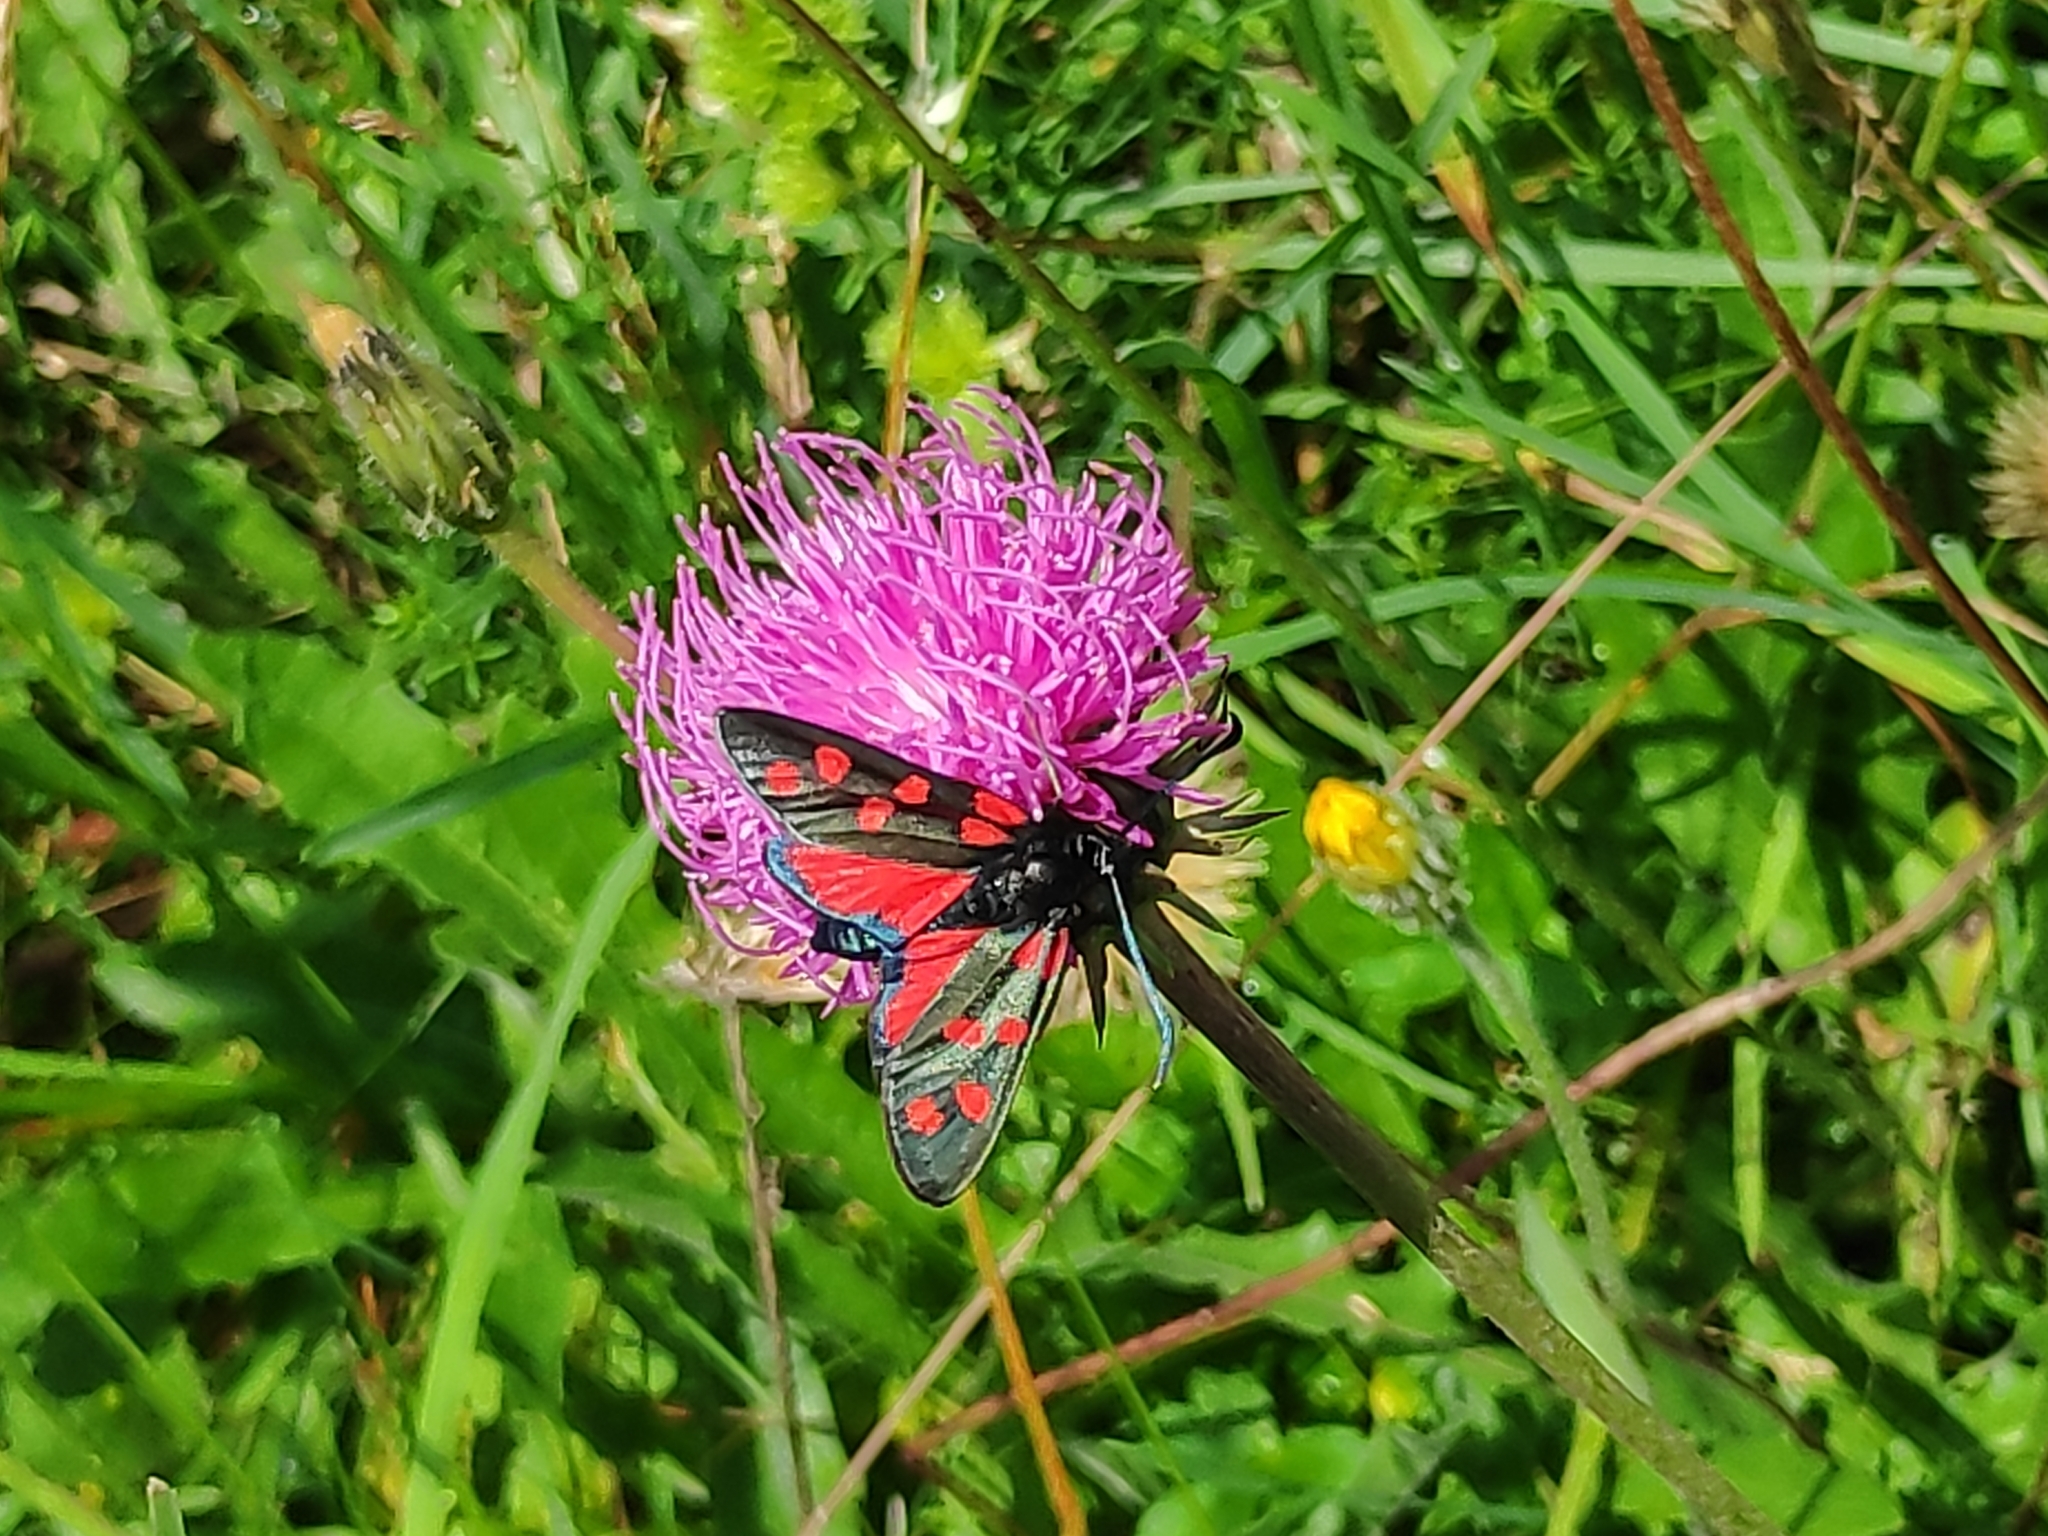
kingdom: Animalia
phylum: Arthropoda
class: Insecta
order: Lepidoptera
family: Zygaenidae
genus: Zygaena
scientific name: Zygaena transalpina
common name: Southern six spot burnet
